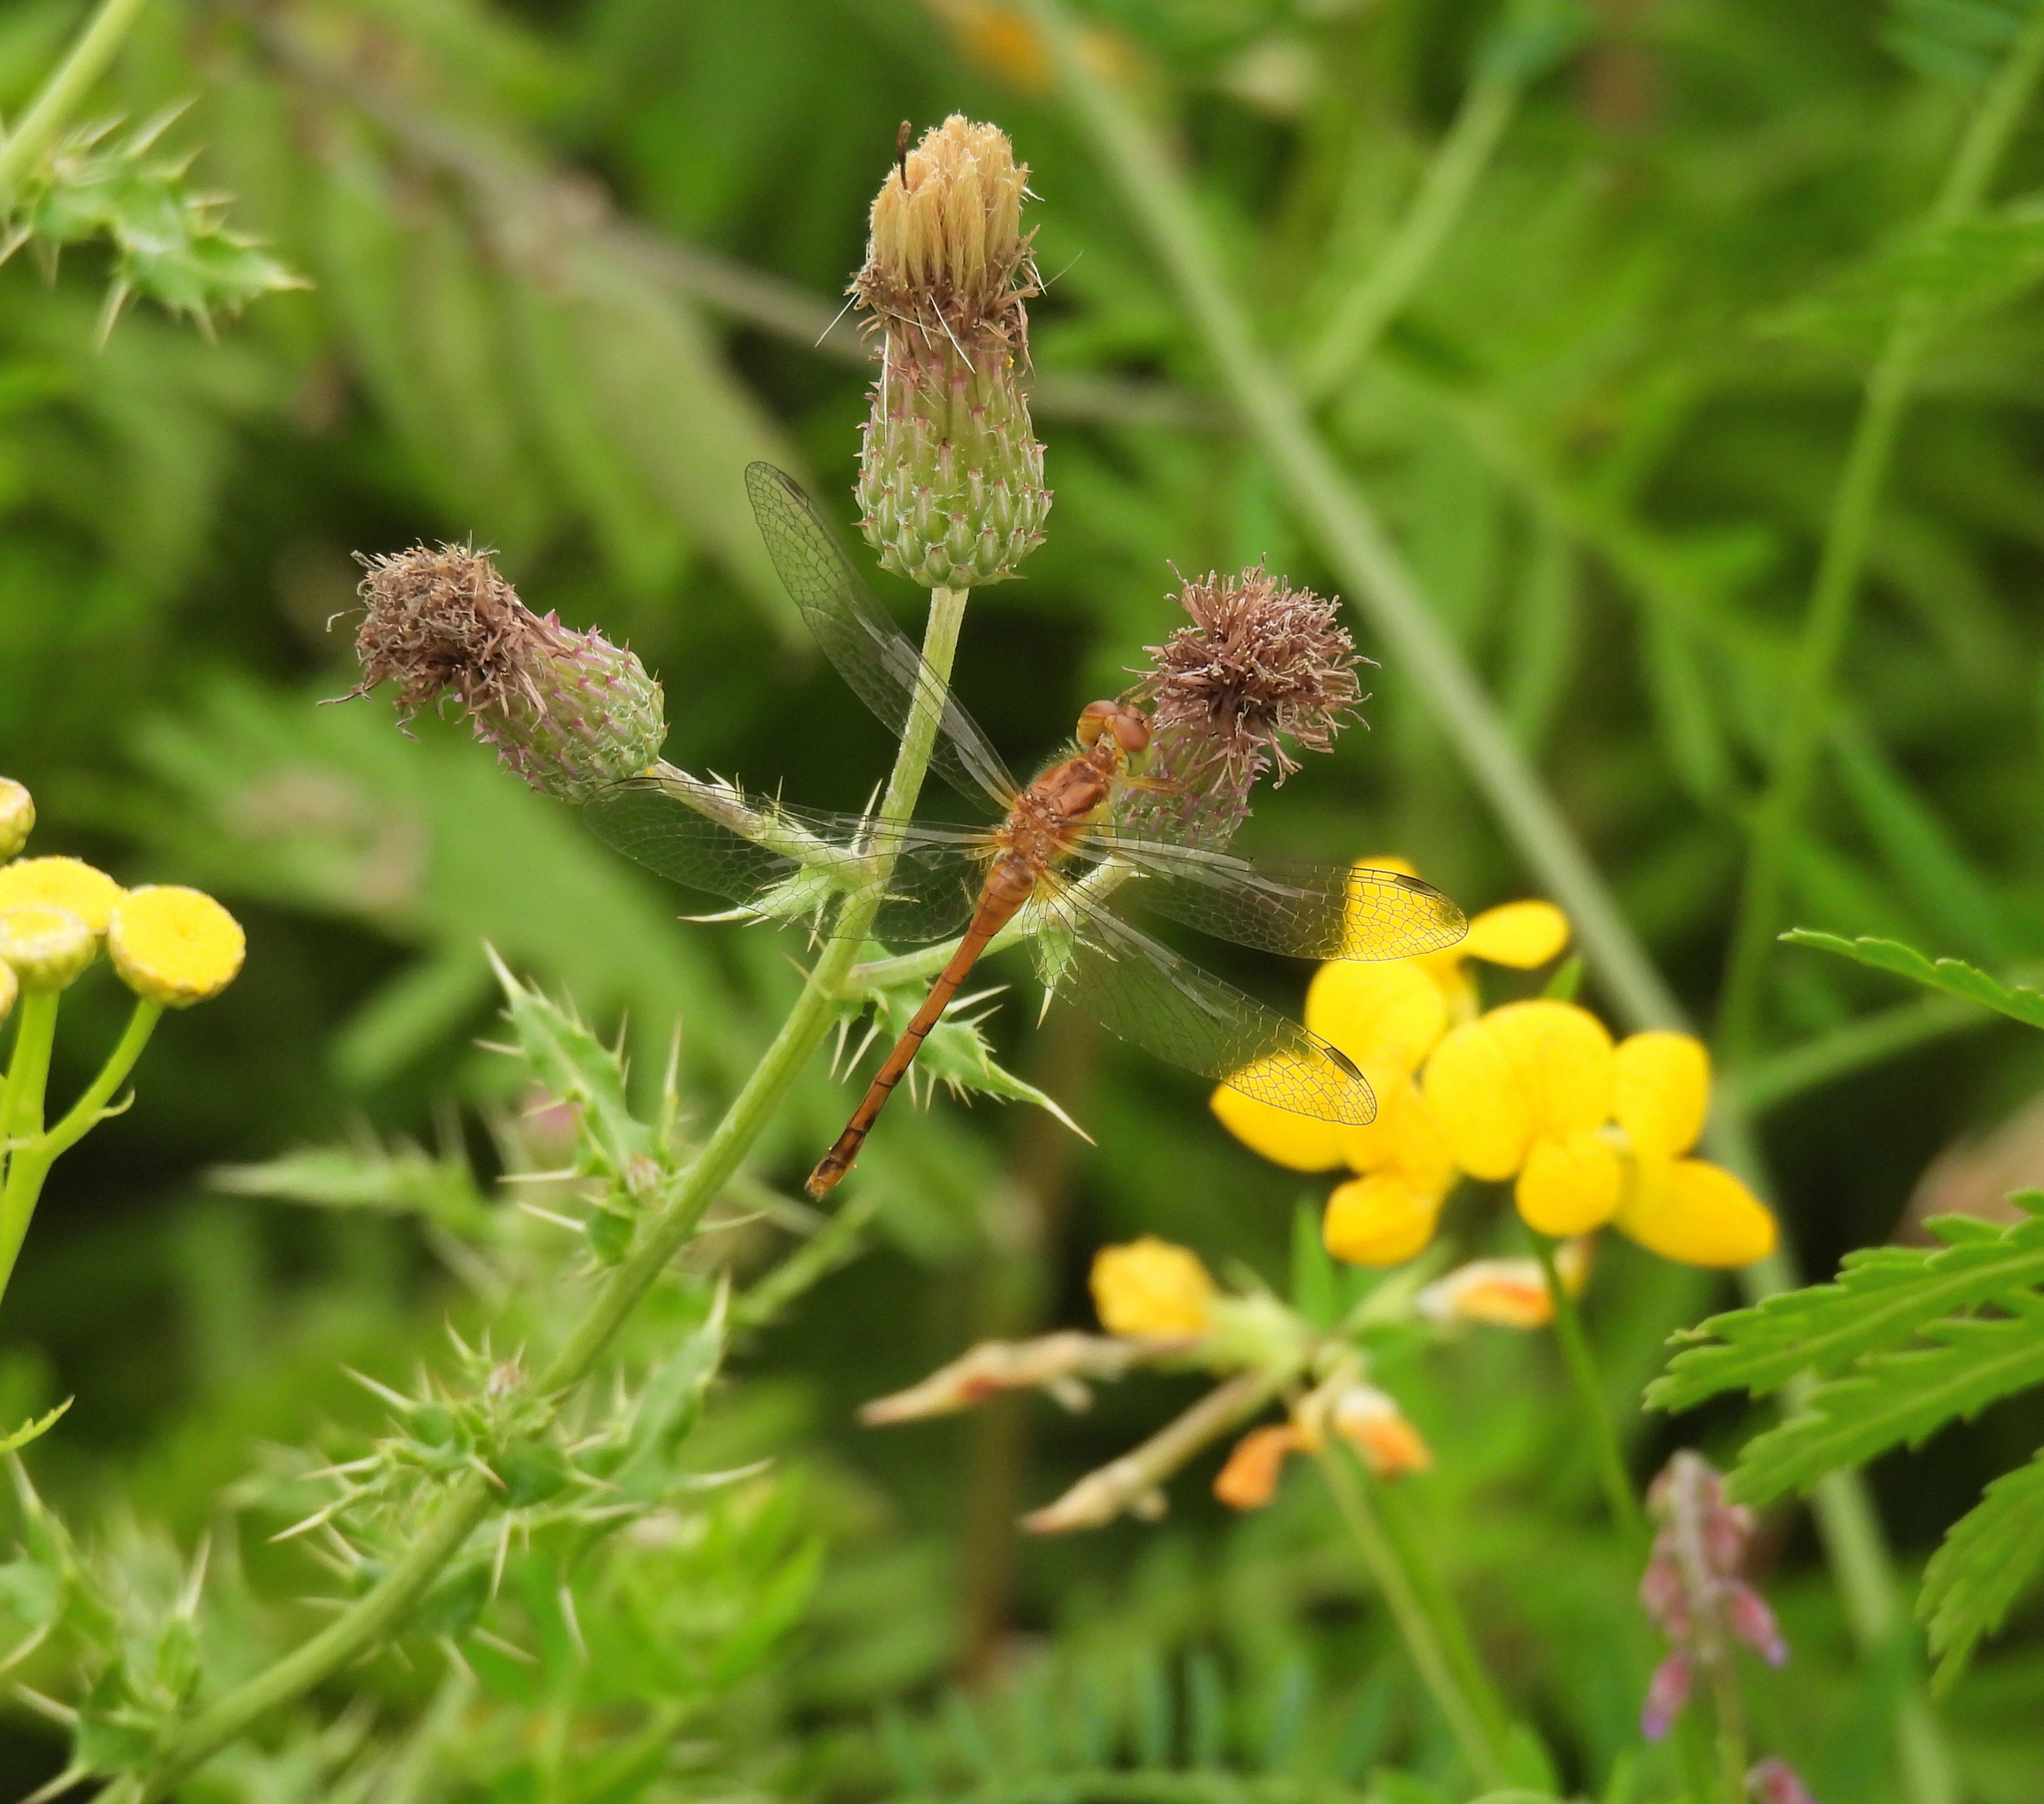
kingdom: Animalia
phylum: Arthropoda
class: Insecta
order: Odonata
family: Libellulidae
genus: Sympetrum
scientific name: Sympetrum vicinum
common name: Autumn meadowhawk
